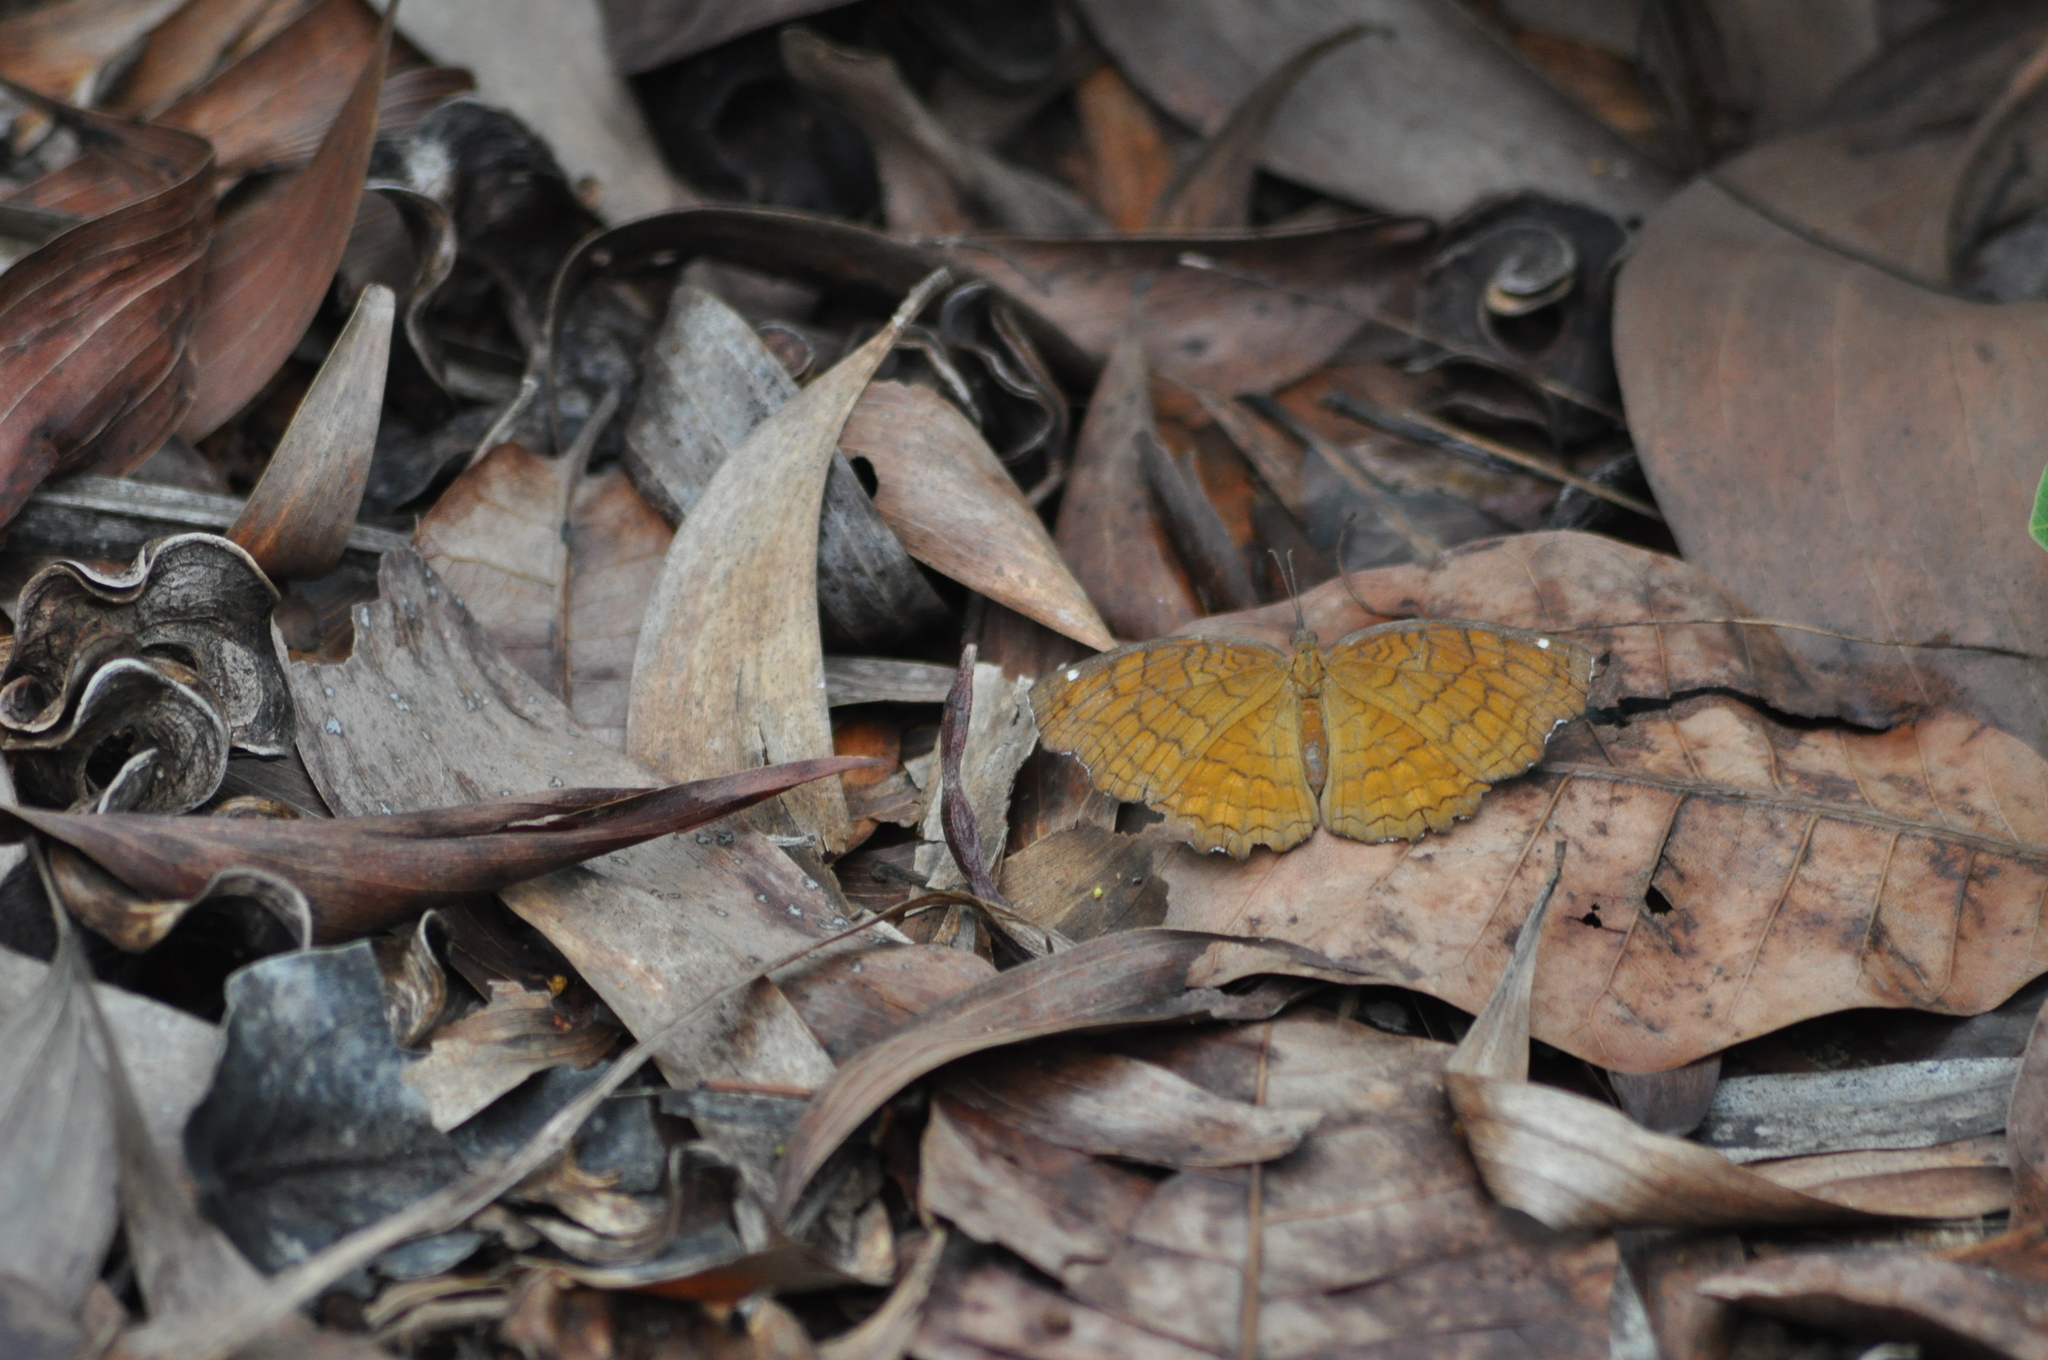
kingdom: Animalia
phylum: Arthropoda
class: Insecta
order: Lepidoptera
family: Nymphalidae
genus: Ariadne
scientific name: Ariadne ariadne
